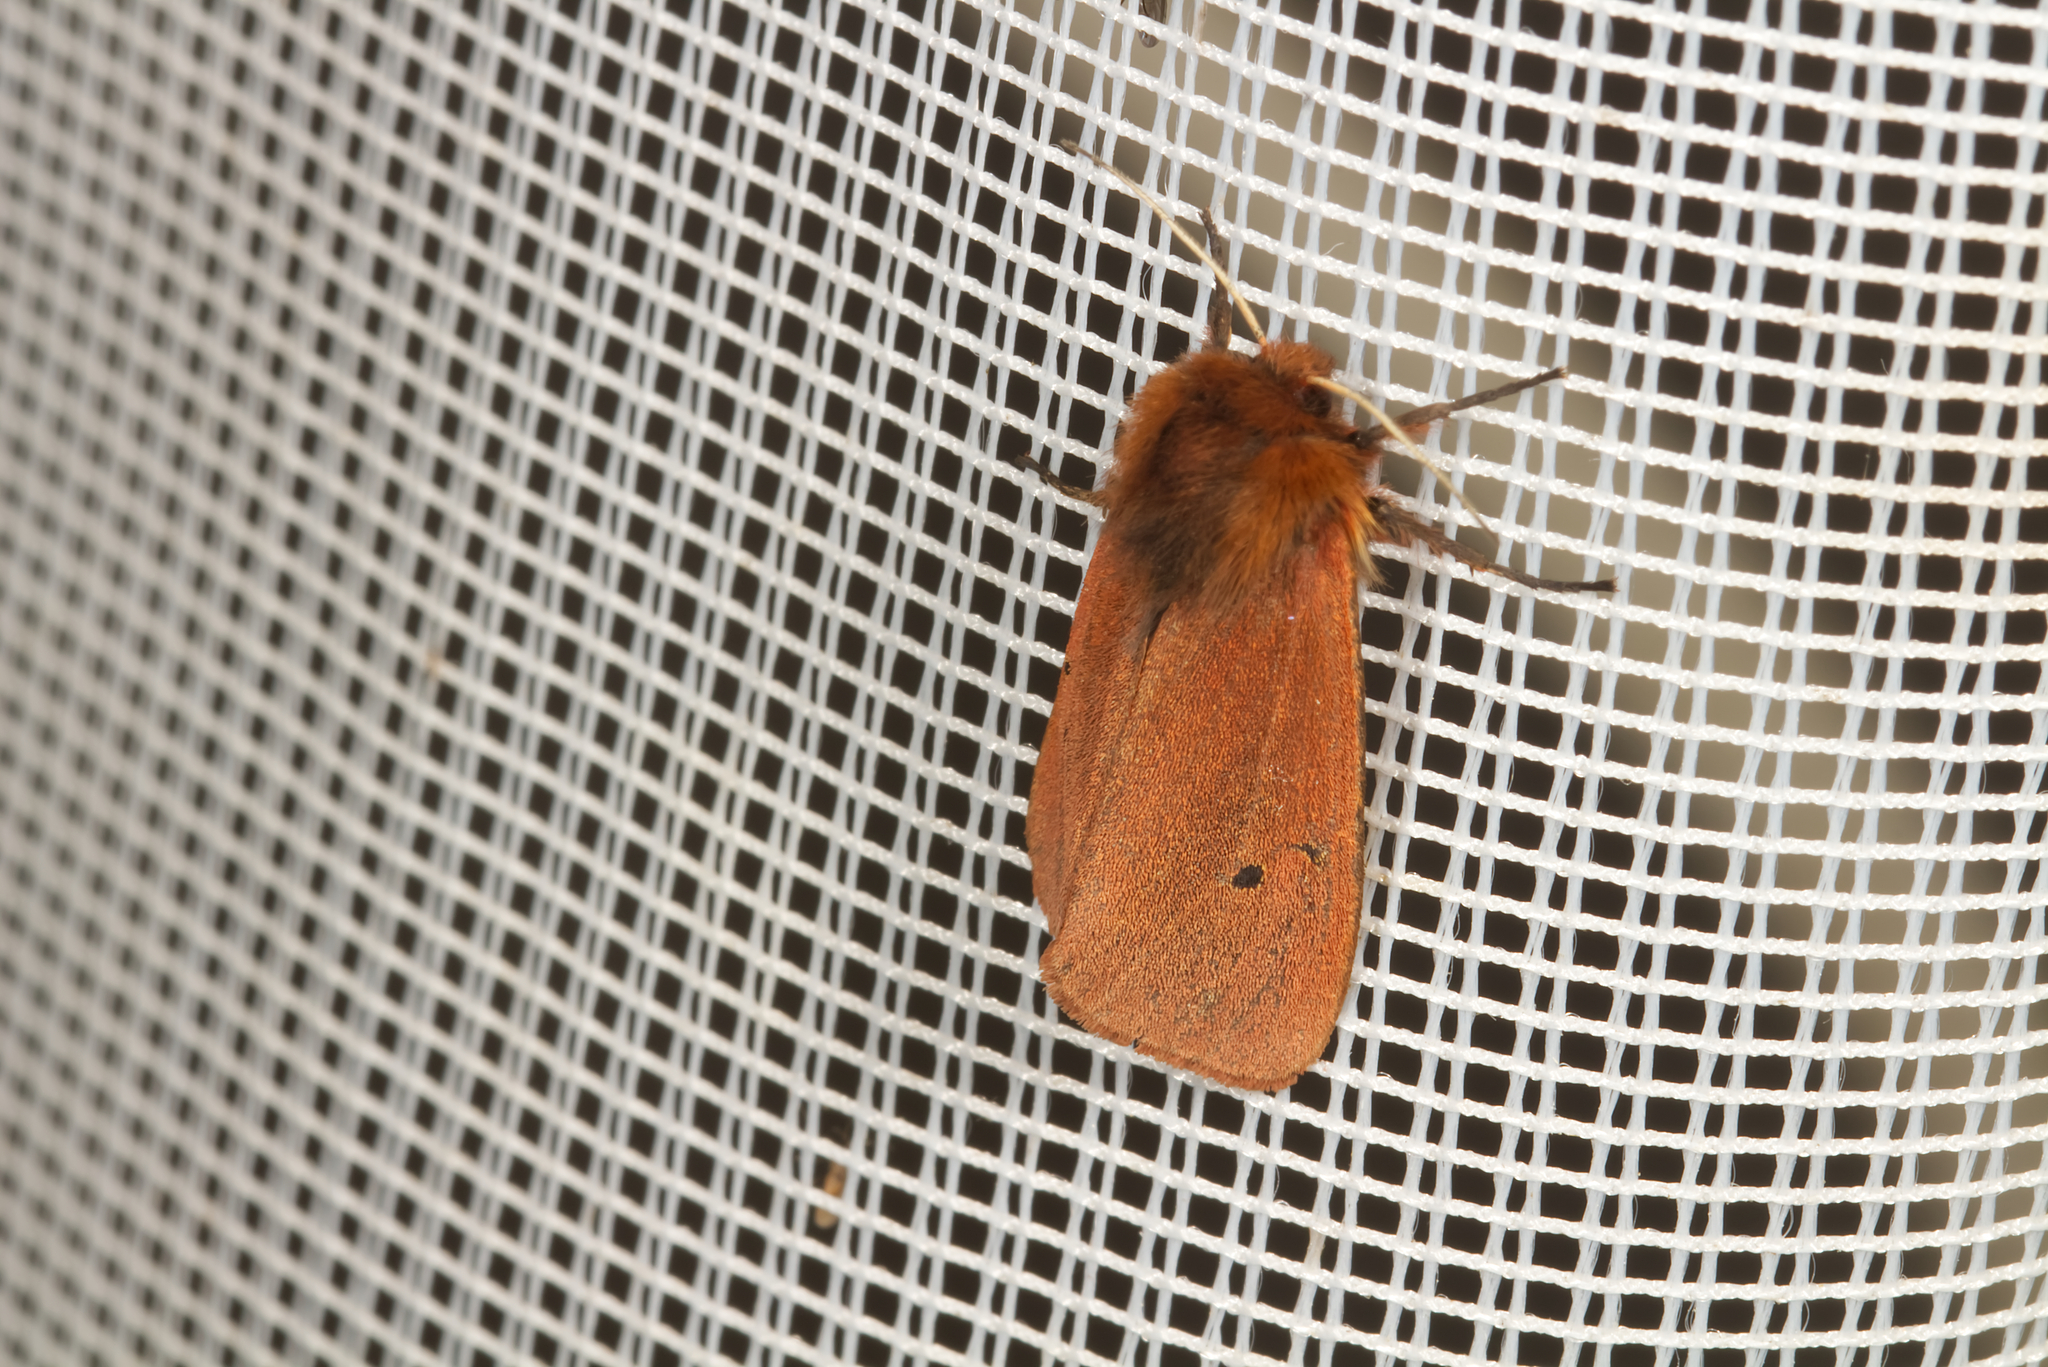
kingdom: Animalia
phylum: Arthropoda
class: Insecta
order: Lepidoptera
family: Erebidae
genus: Phragmatobia
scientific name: Phragmatobia fuliginosa
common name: Ruby tiger
